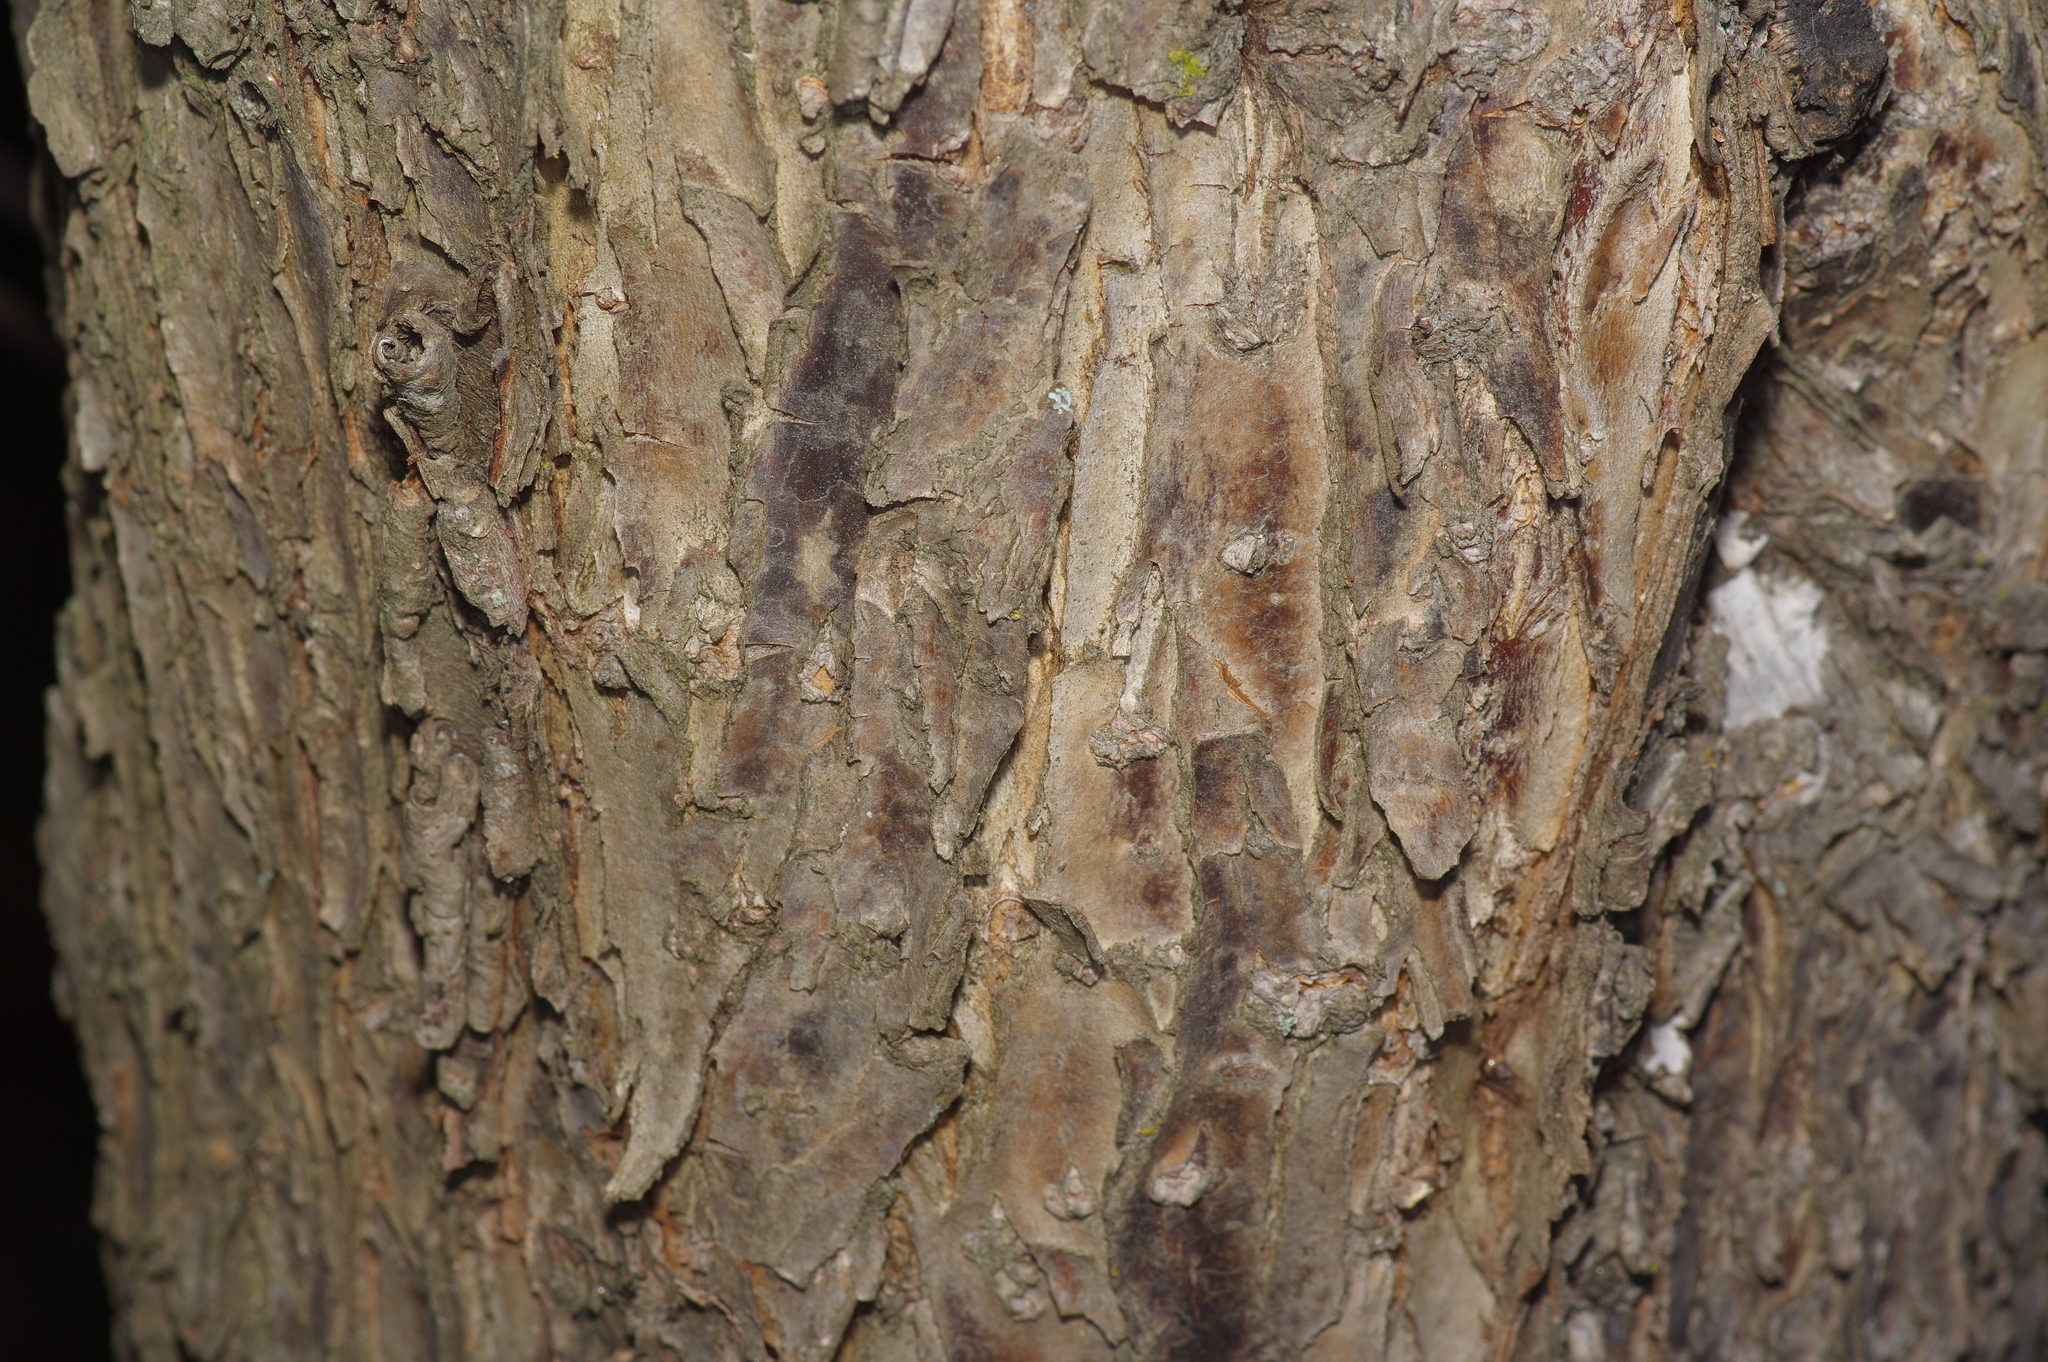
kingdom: Plantae
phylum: Tracheophyta
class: Magnoliopsida
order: Rosales
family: Rosaceae
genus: Prunus
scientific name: Prunus mexicana
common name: Mexican plum
